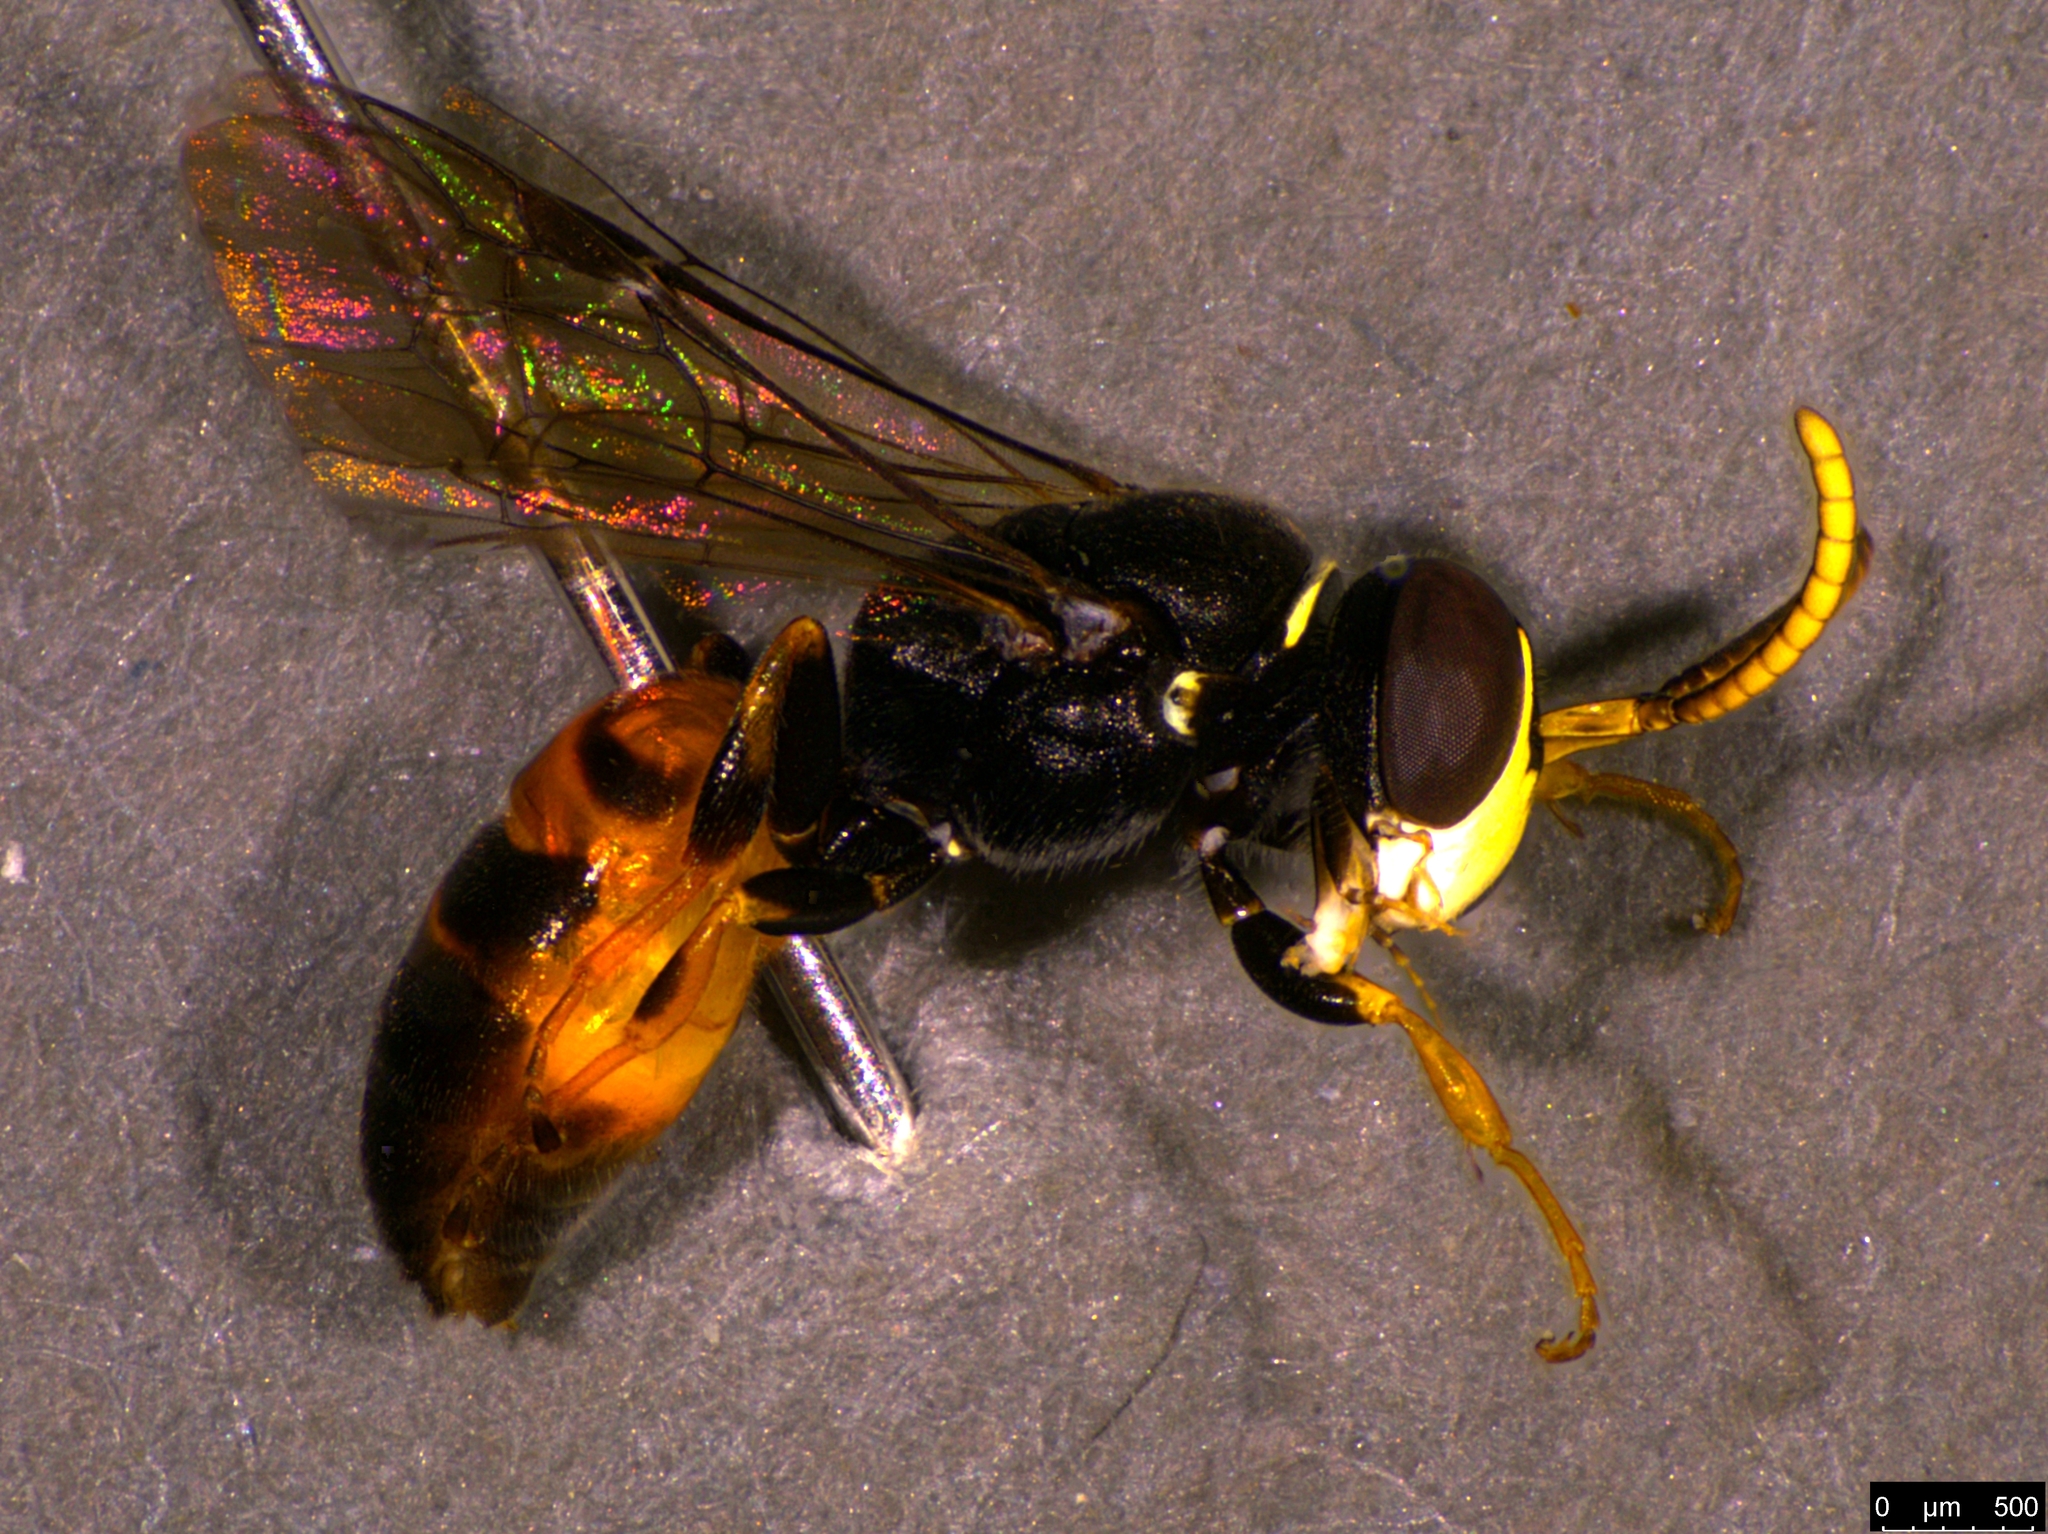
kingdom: Animalia
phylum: Arthropoda
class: Insecta
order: Hymenoptera
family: Colletidae
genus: Hylaeus
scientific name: Hylaeus littleri
